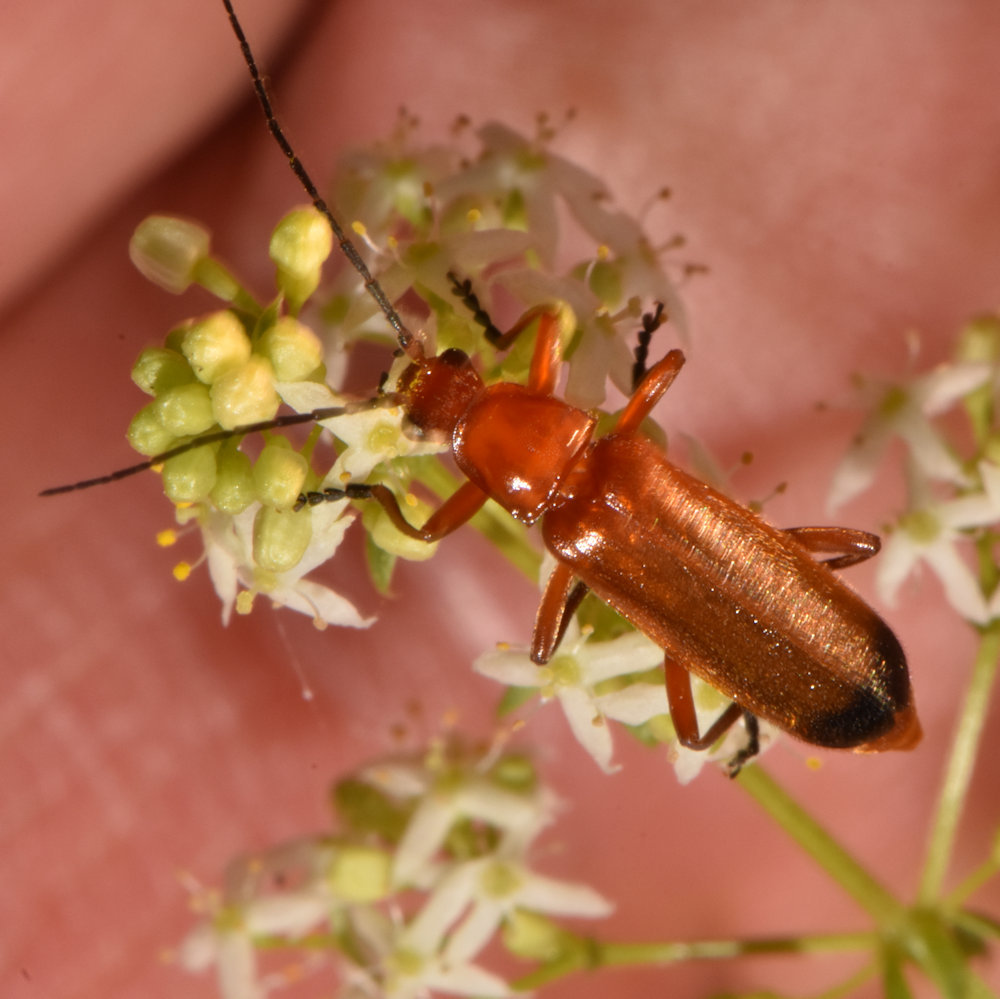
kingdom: Animalia
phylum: Arthropoda
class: Insecta
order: Coleoptera
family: Cantharidae
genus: Rhagonycha
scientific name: Rhagonycha fulva
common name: Common red soldier beetle
